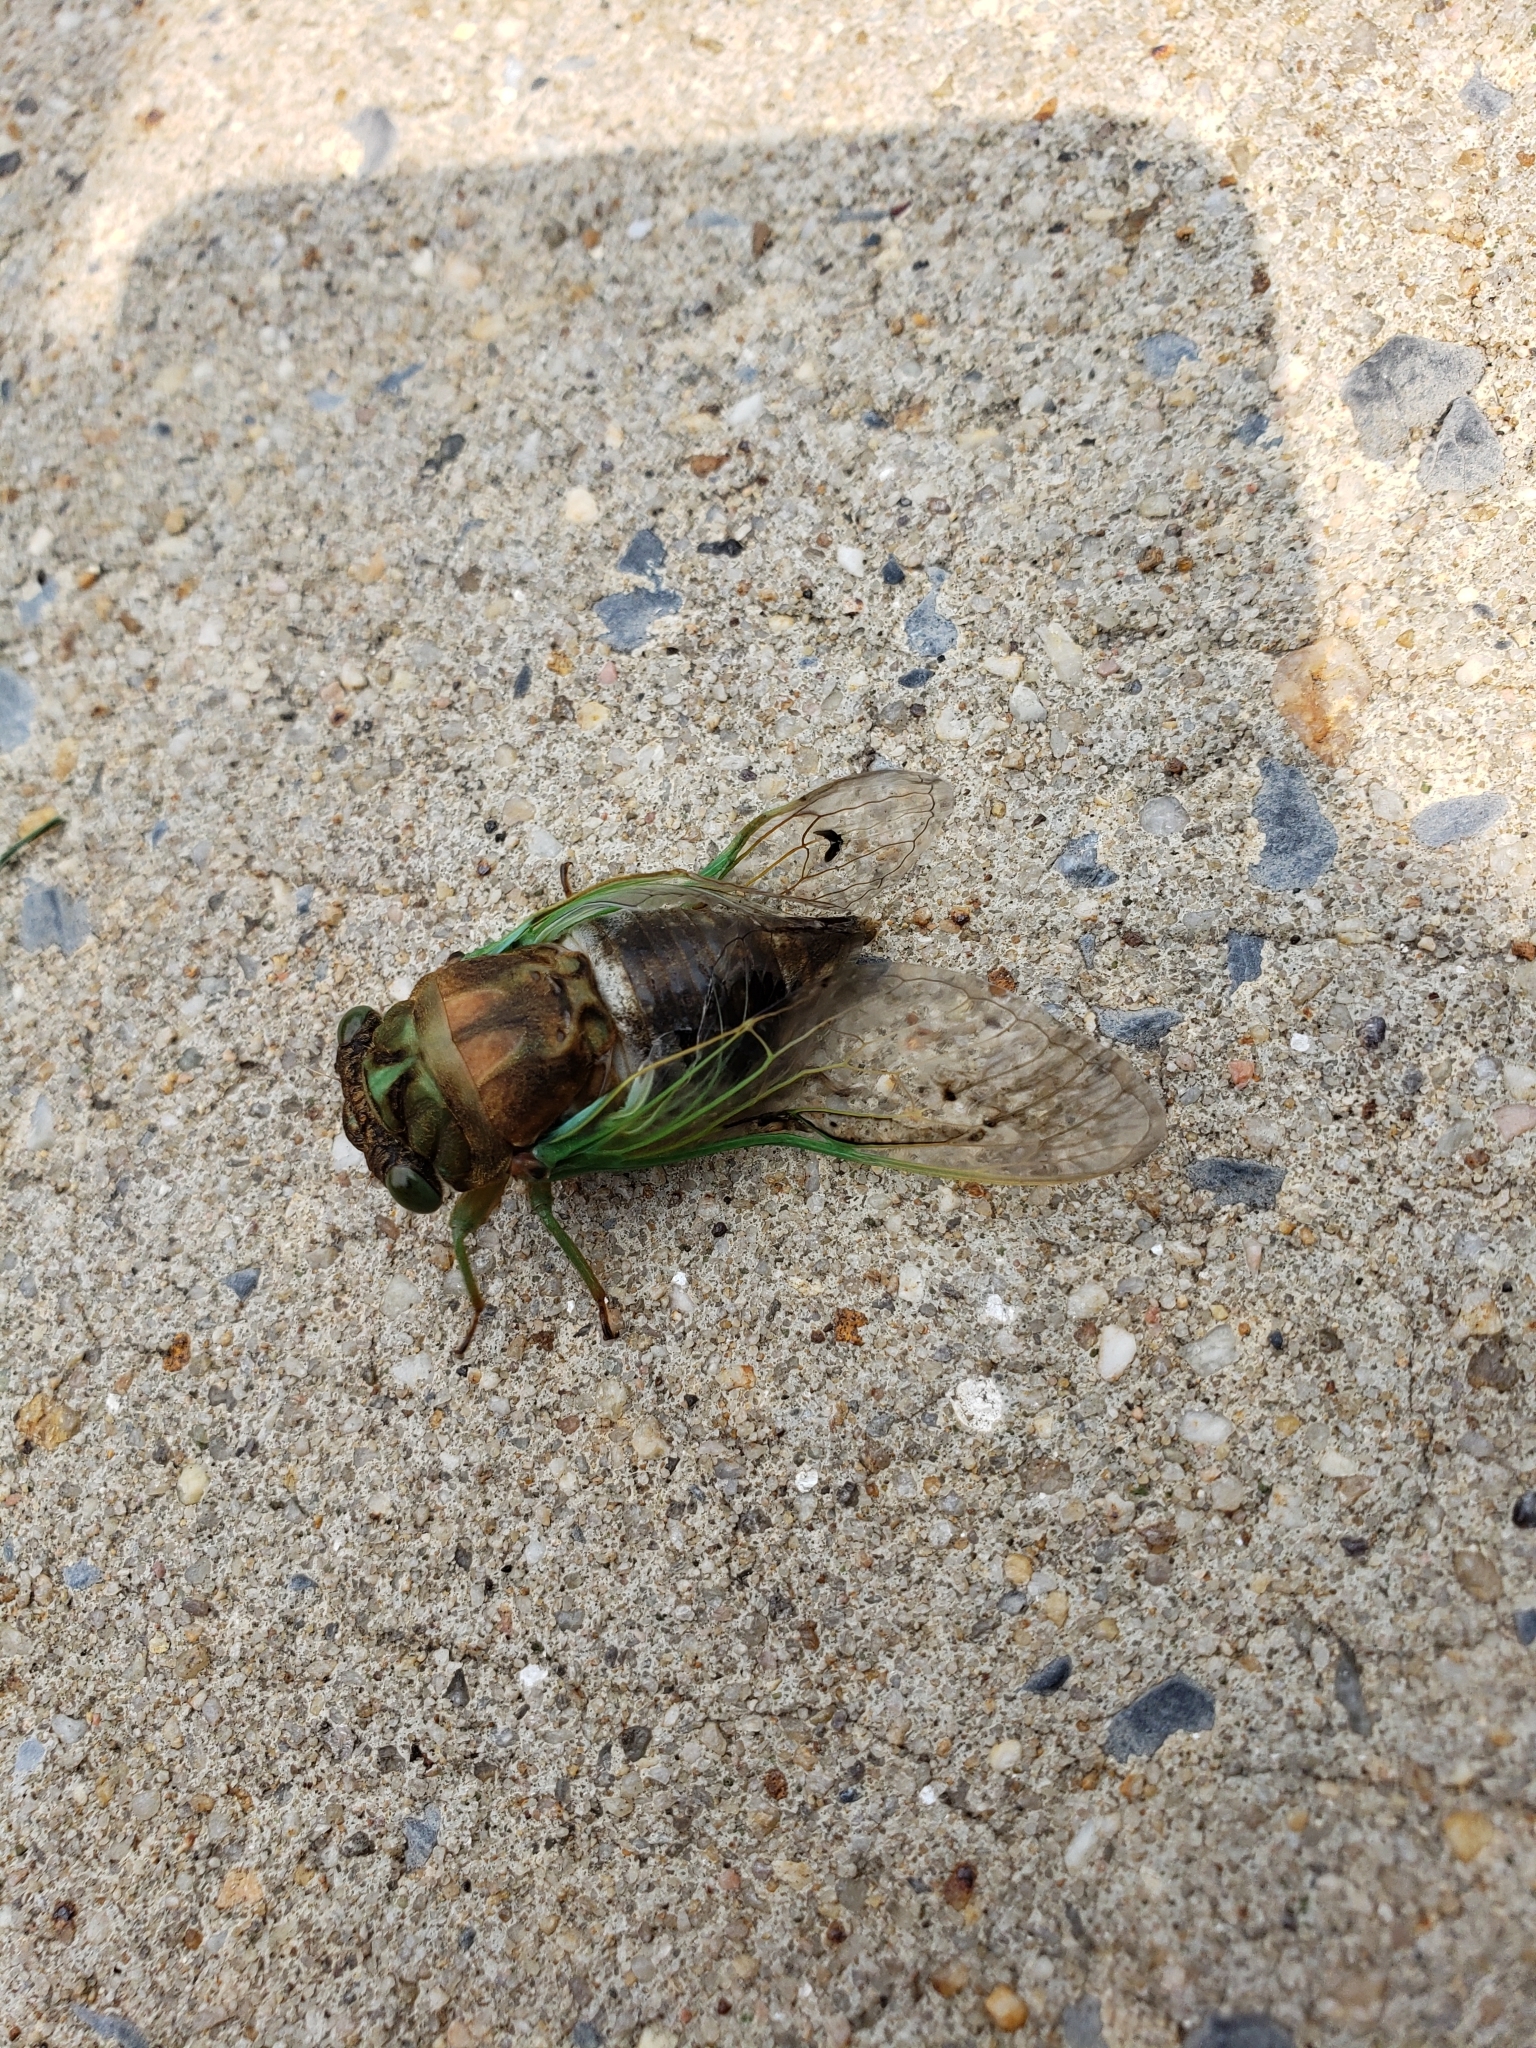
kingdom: Animalia
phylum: Arthropoda
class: Insecta
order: Hemiptera
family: Cicadidae
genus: Neotibicen
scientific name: Neotibicen tibicen
